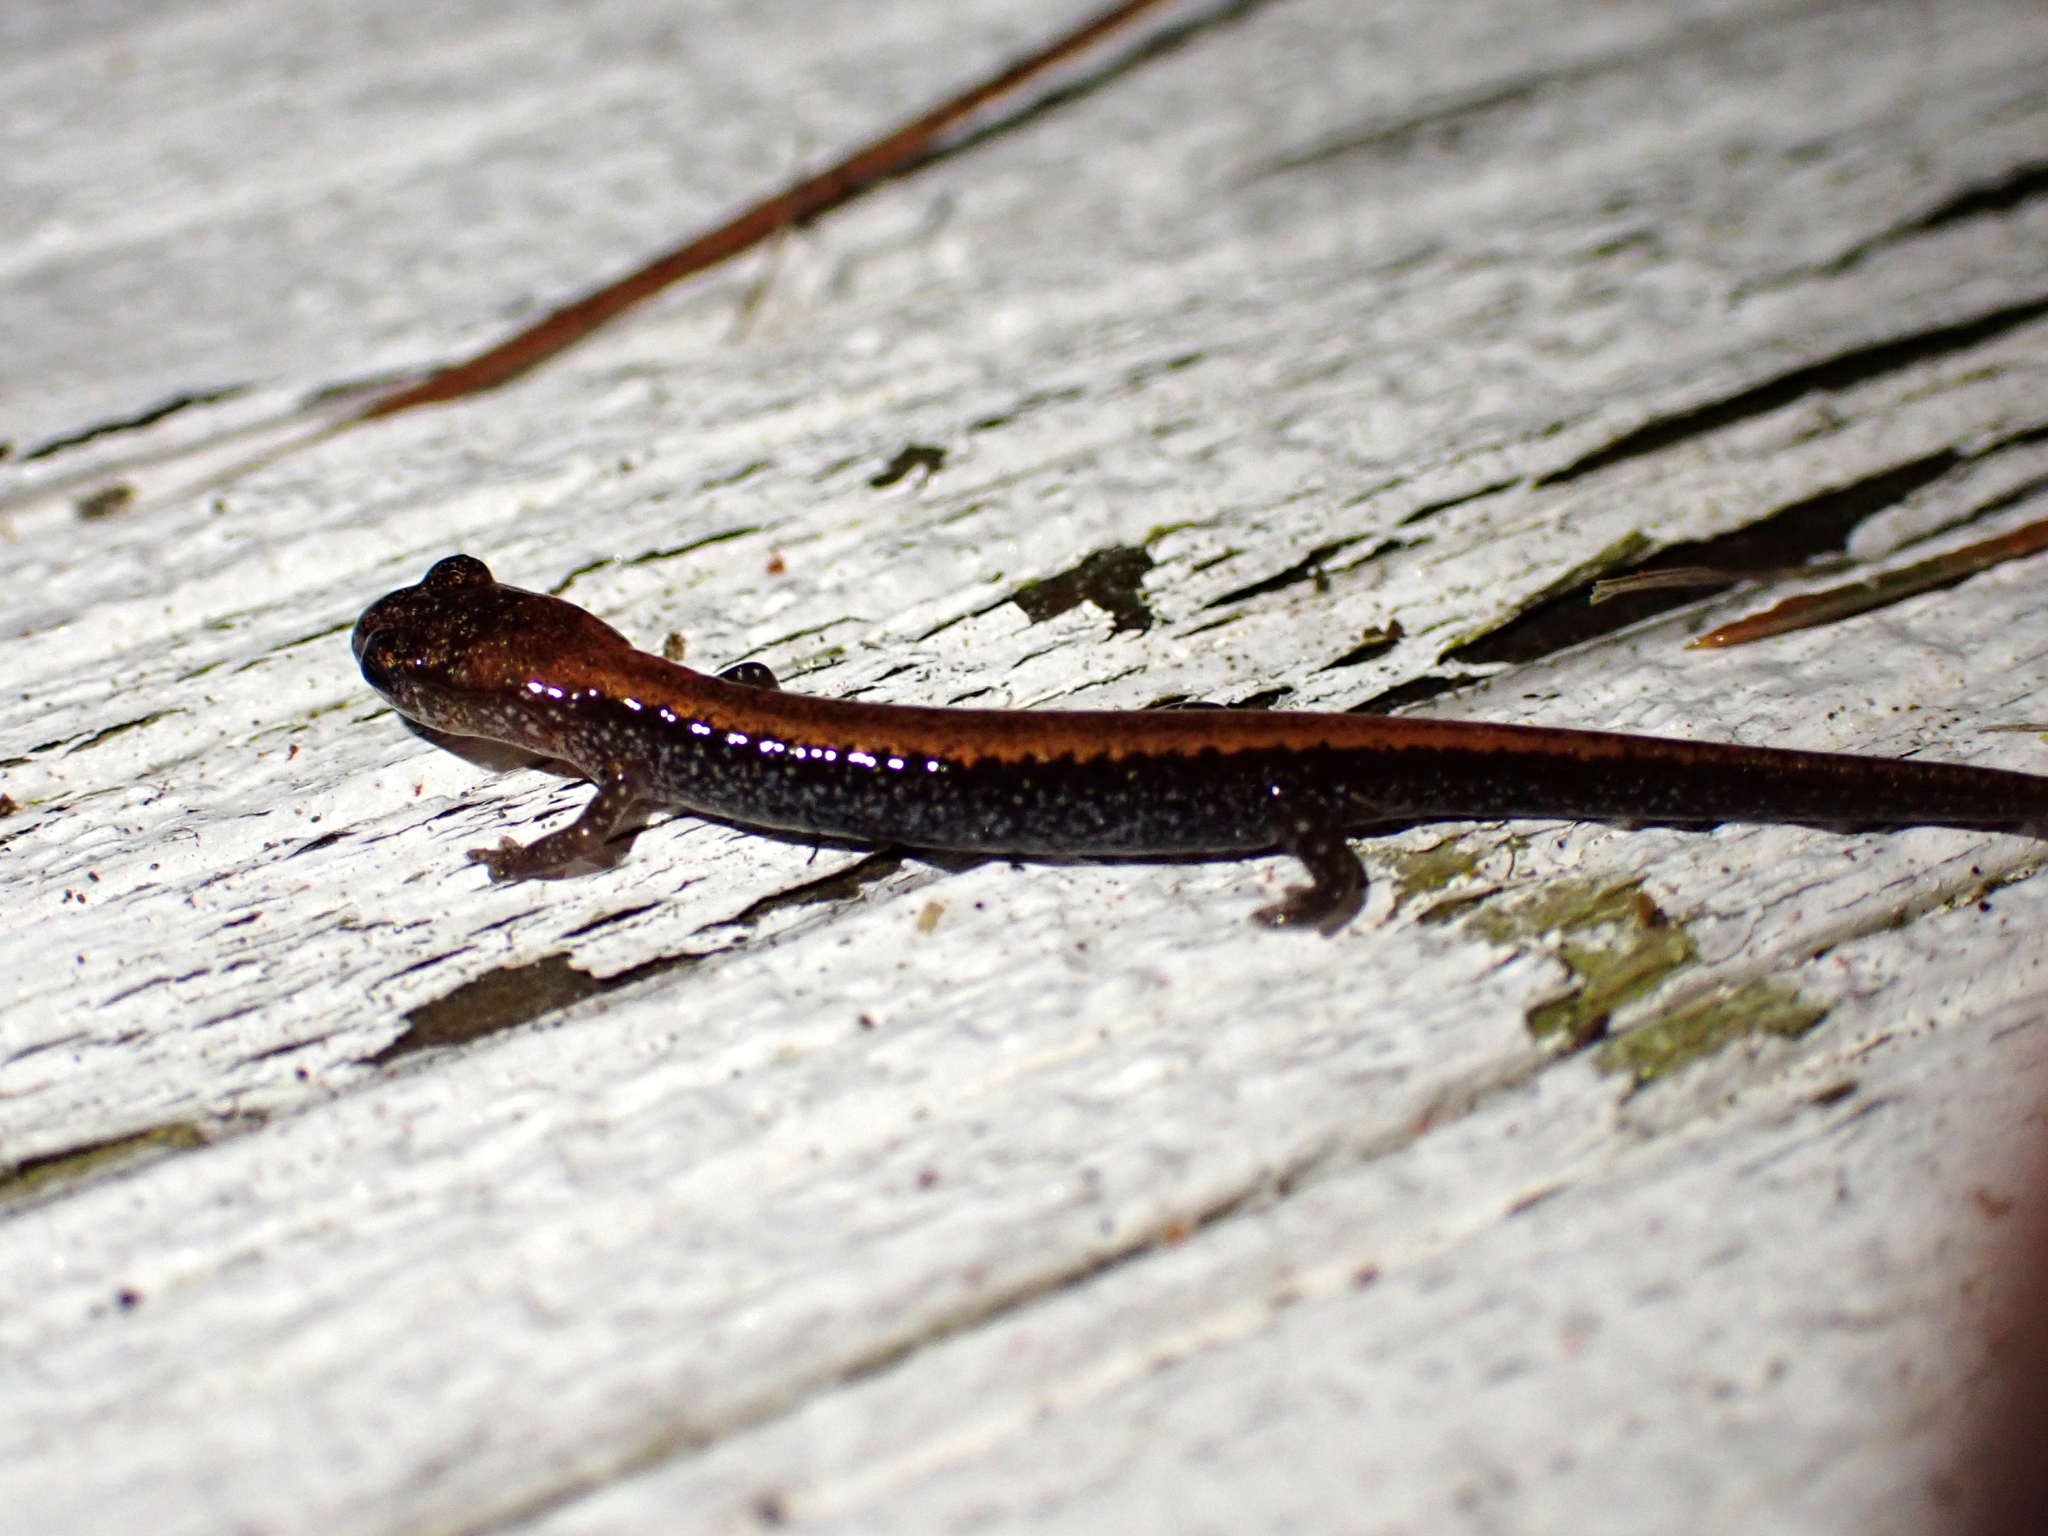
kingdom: Animalia
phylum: Chordata
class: Amphibia
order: Caudata
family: Plethodontidae
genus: Plethodon
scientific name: Plethodon cinereus
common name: Redback salamander
